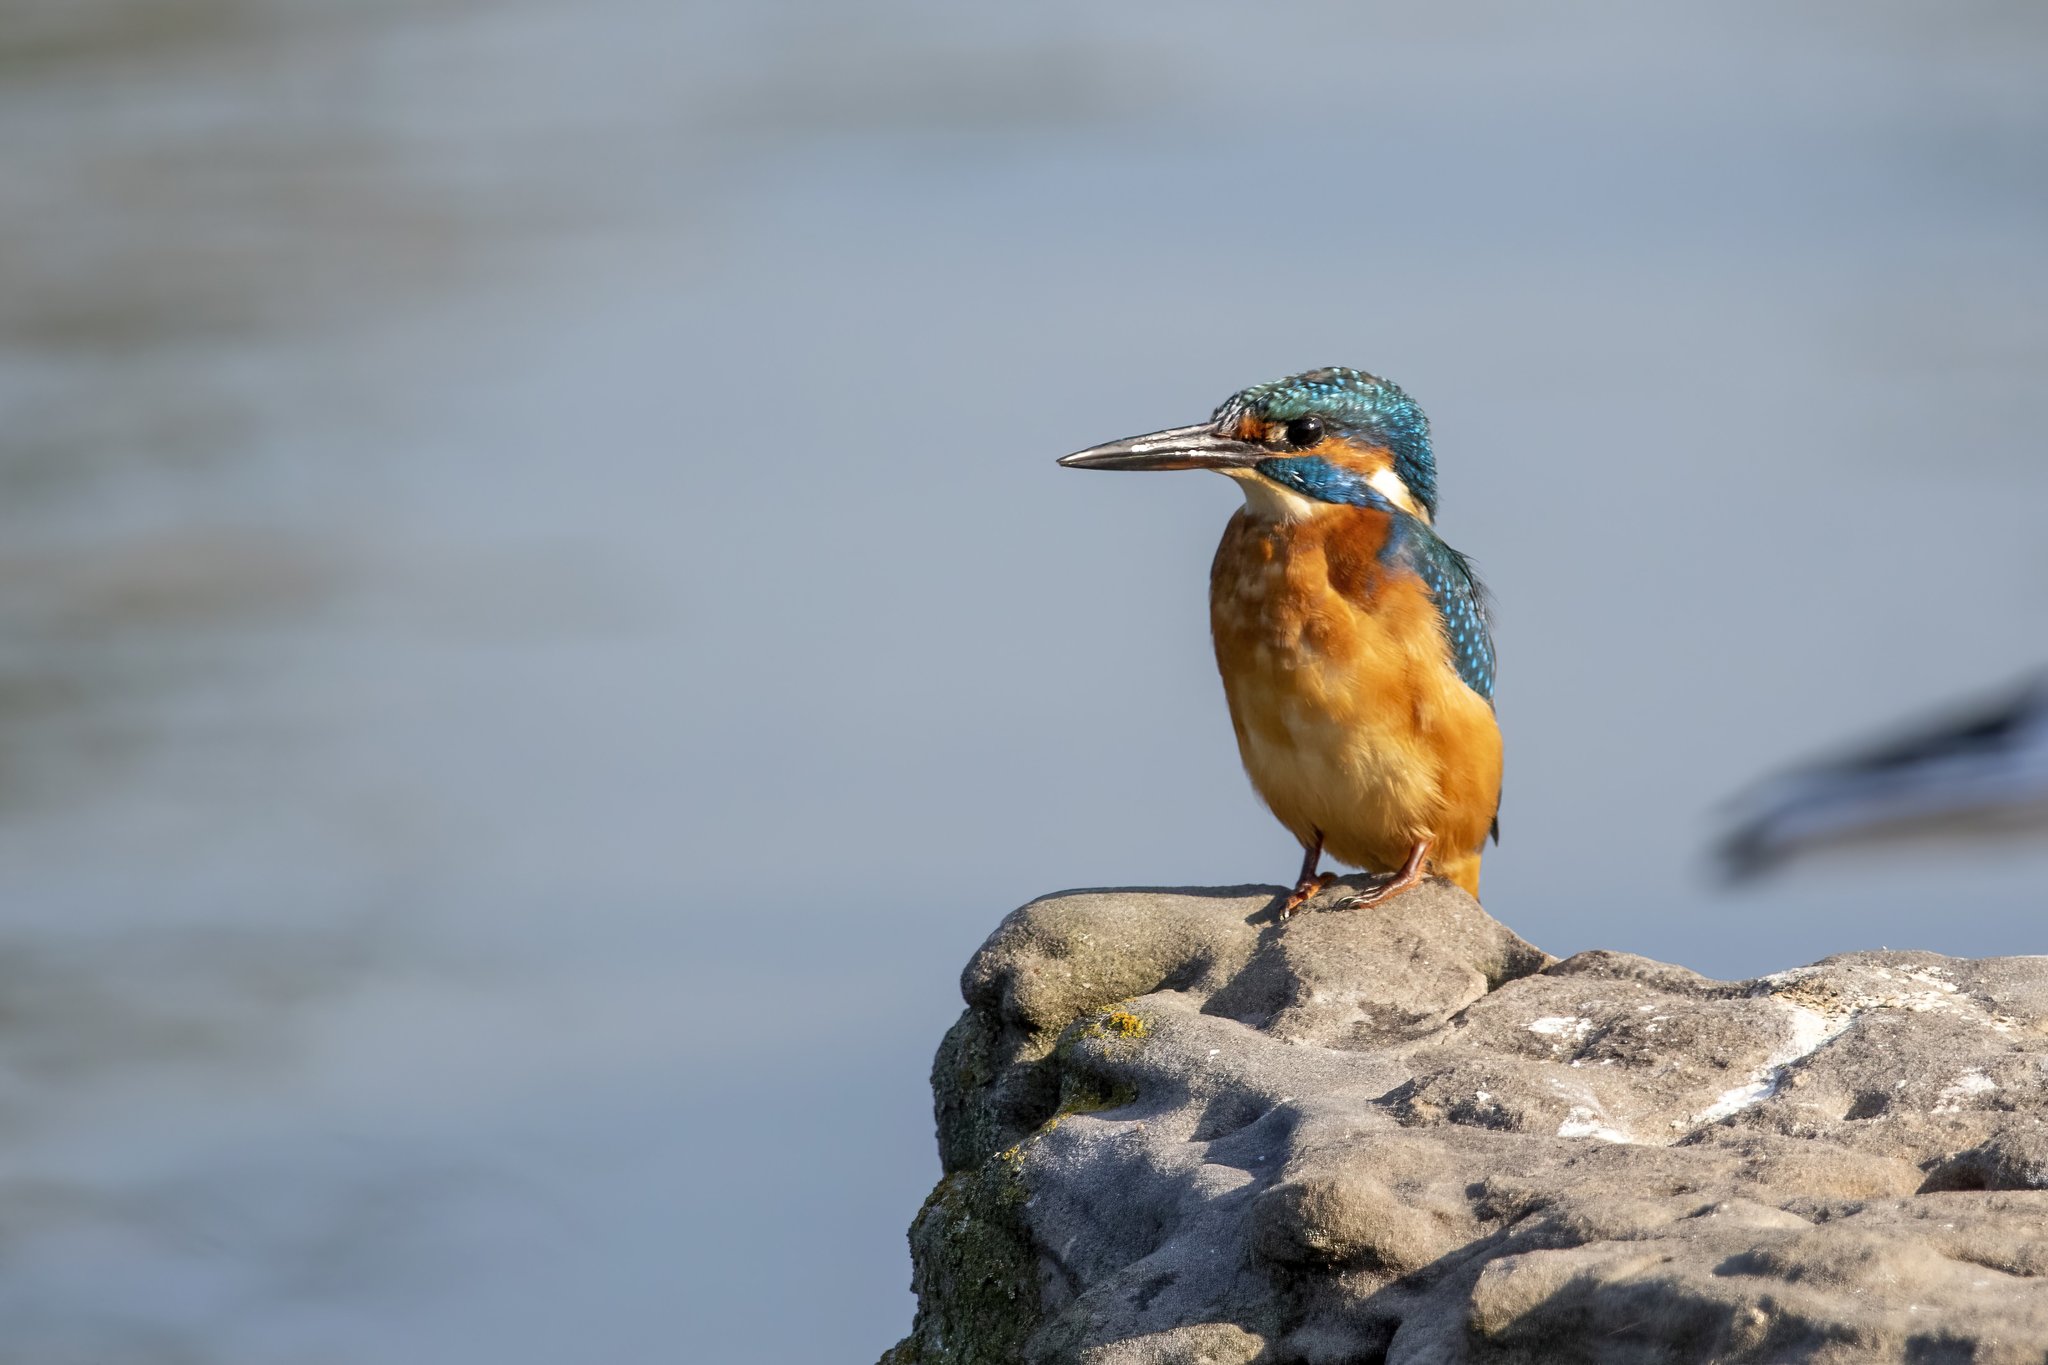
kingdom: Animalia
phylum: Chordata
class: Aves
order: Coraciiformes
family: Alcedinidae
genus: Alcedo
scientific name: Alcedo atthis
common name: Common kingfisher
